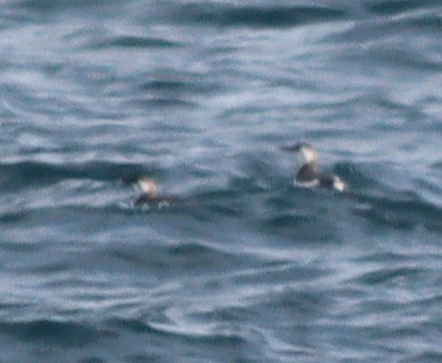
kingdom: Animalia
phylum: Chordata
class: Aves
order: Charadriiformes
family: Alcidae
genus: Uria
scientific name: Uria aalge
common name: Common murre
